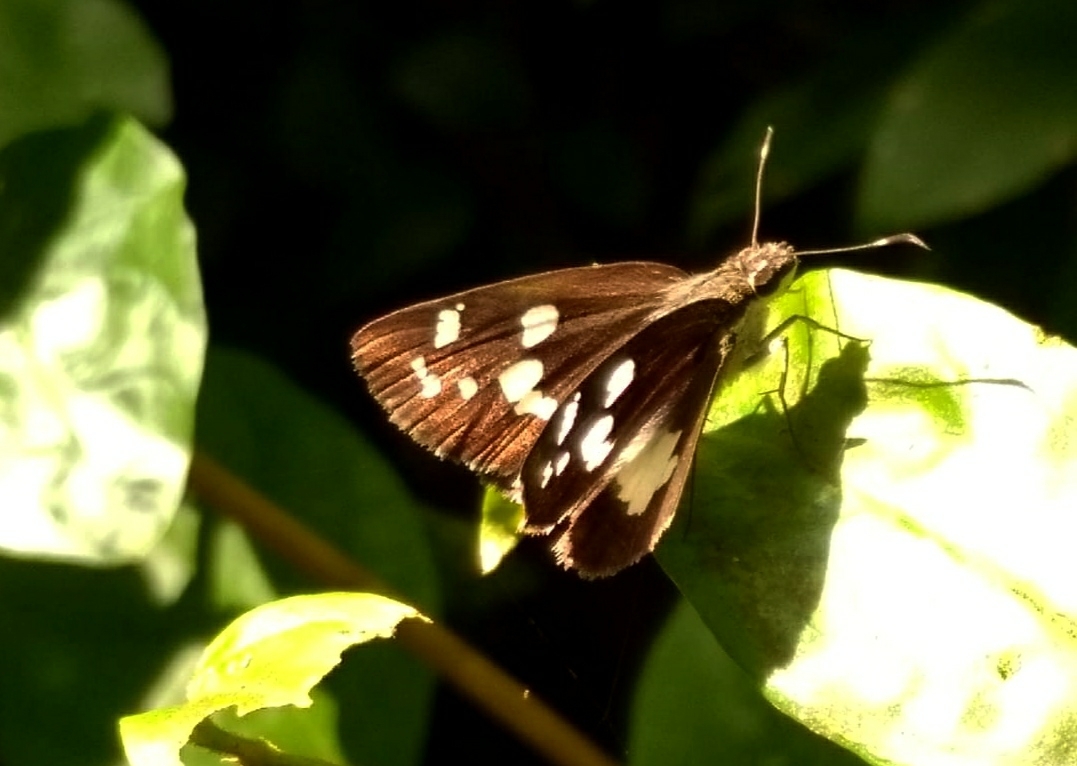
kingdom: Animalia
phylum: Arthropoda
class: Insecta
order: Lepidoptera
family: Hesperiidae
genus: Udaspes
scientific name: Udaspes folus
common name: Grass demon
